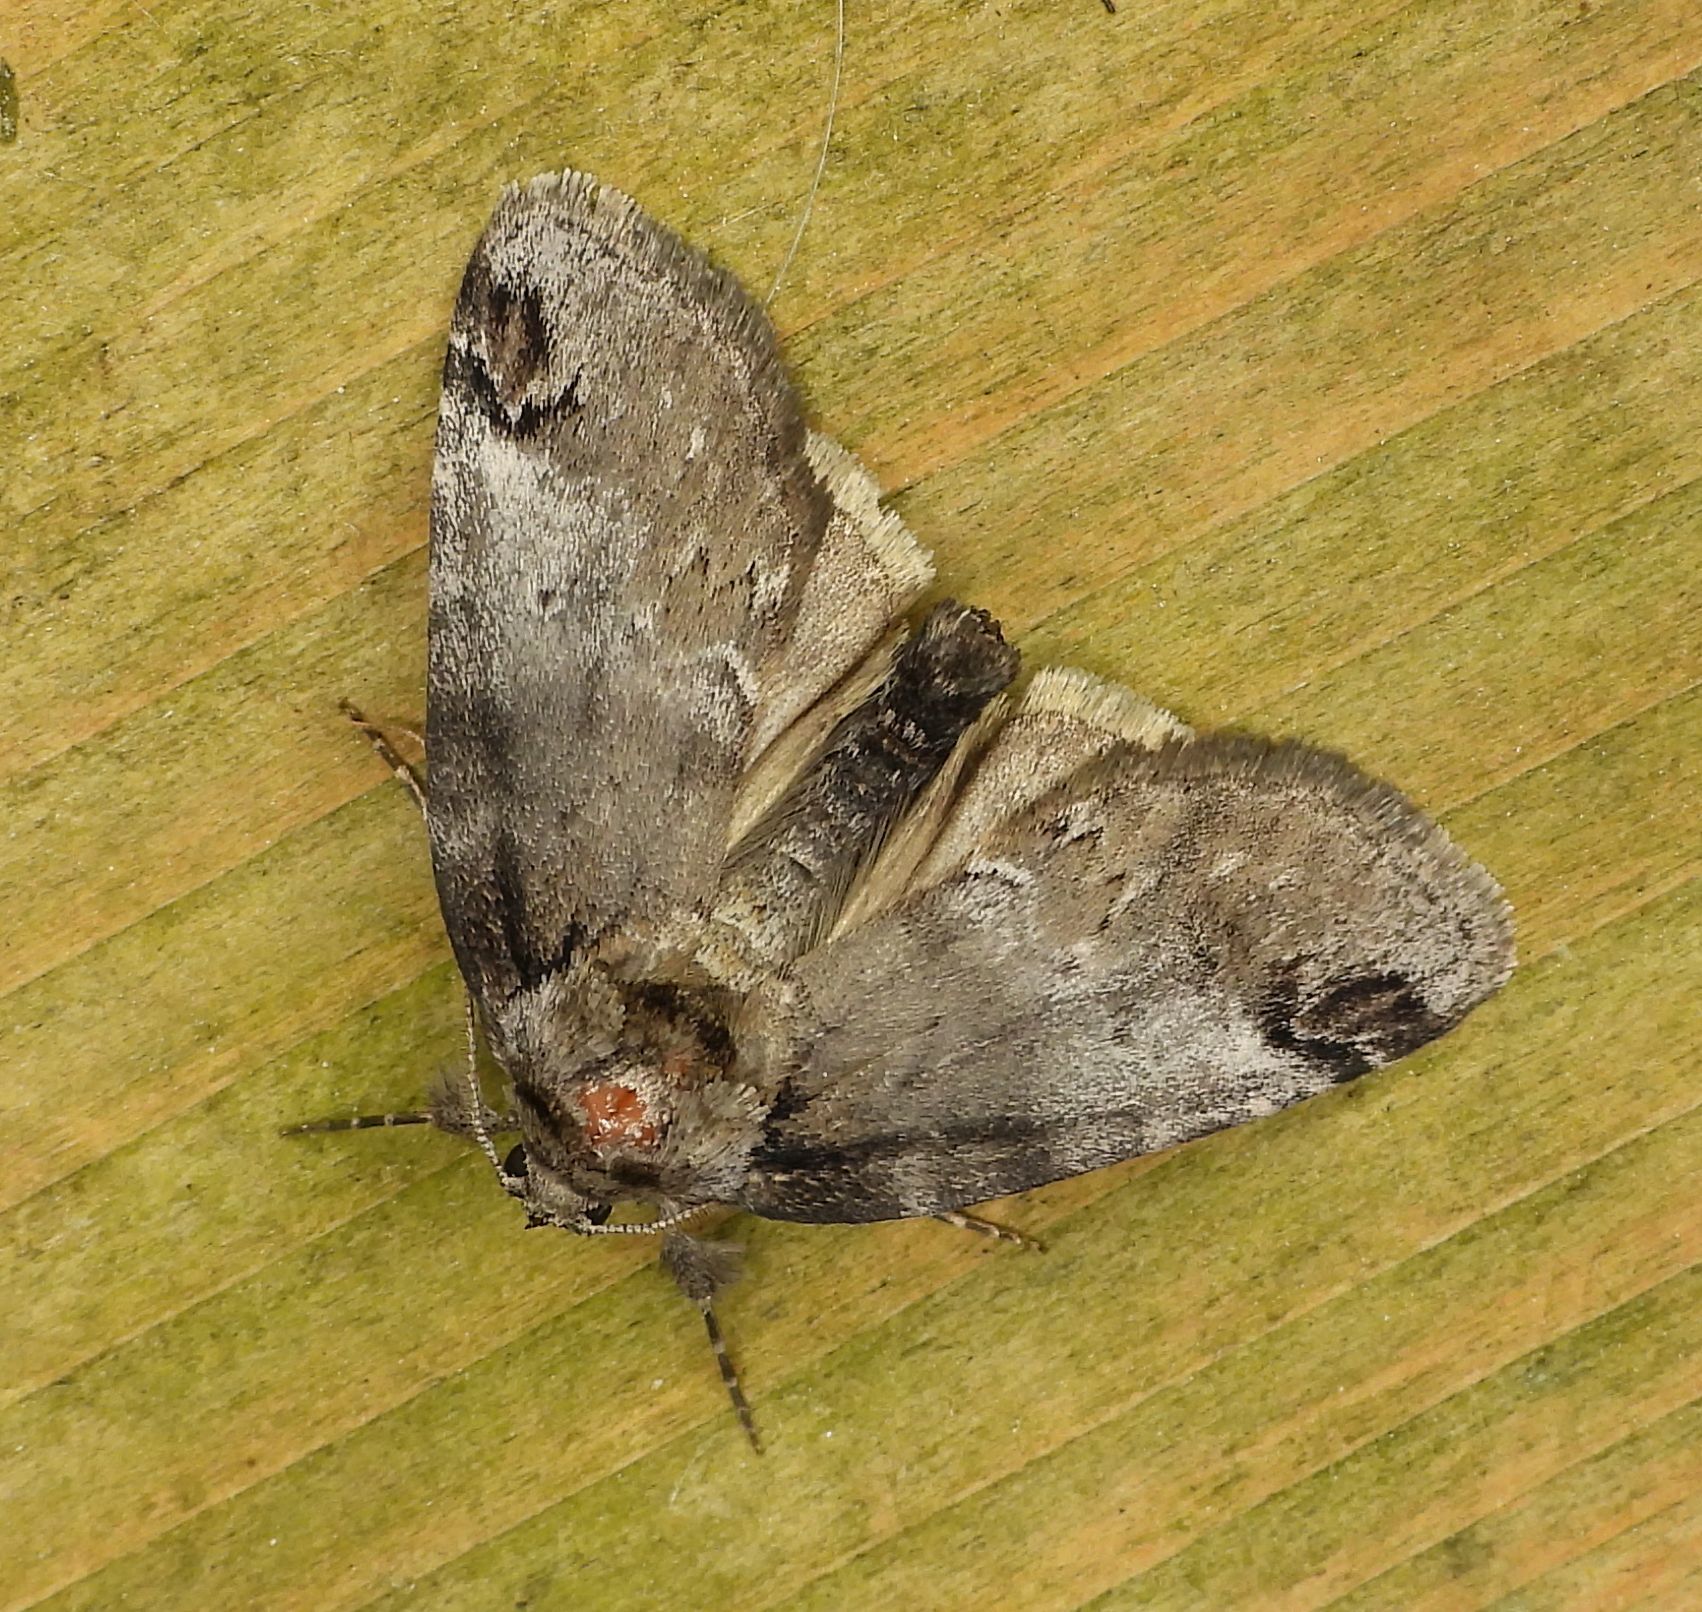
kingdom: Animalia
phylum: Arthropoda
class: Insecta
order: Lepidoptera
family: Nolidae
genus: Baileya
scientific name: Baileya dormitans
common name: Sleeping baileya moth
